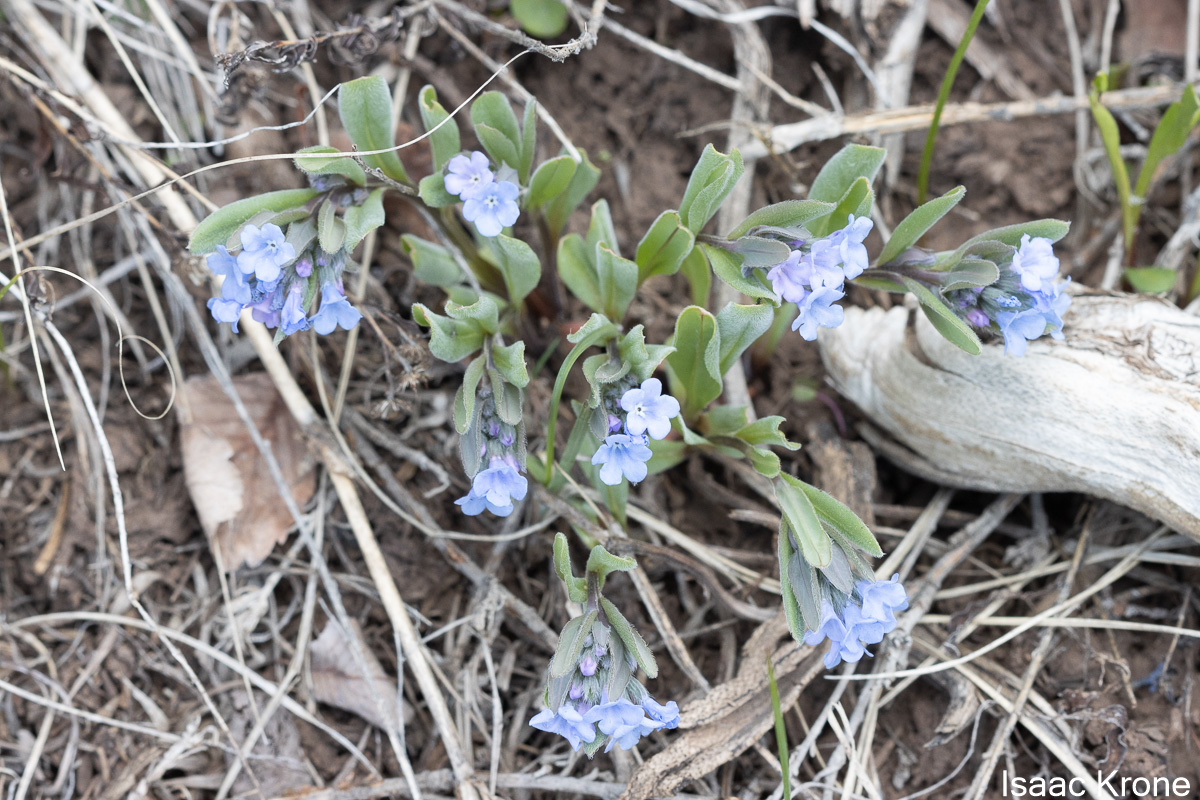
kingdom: Plantae
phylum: Tracheophyta
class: Magnoliopsida
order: Boraginales
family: Boraginaceae
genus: Mertensia
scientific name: Mertensia brevistyla
